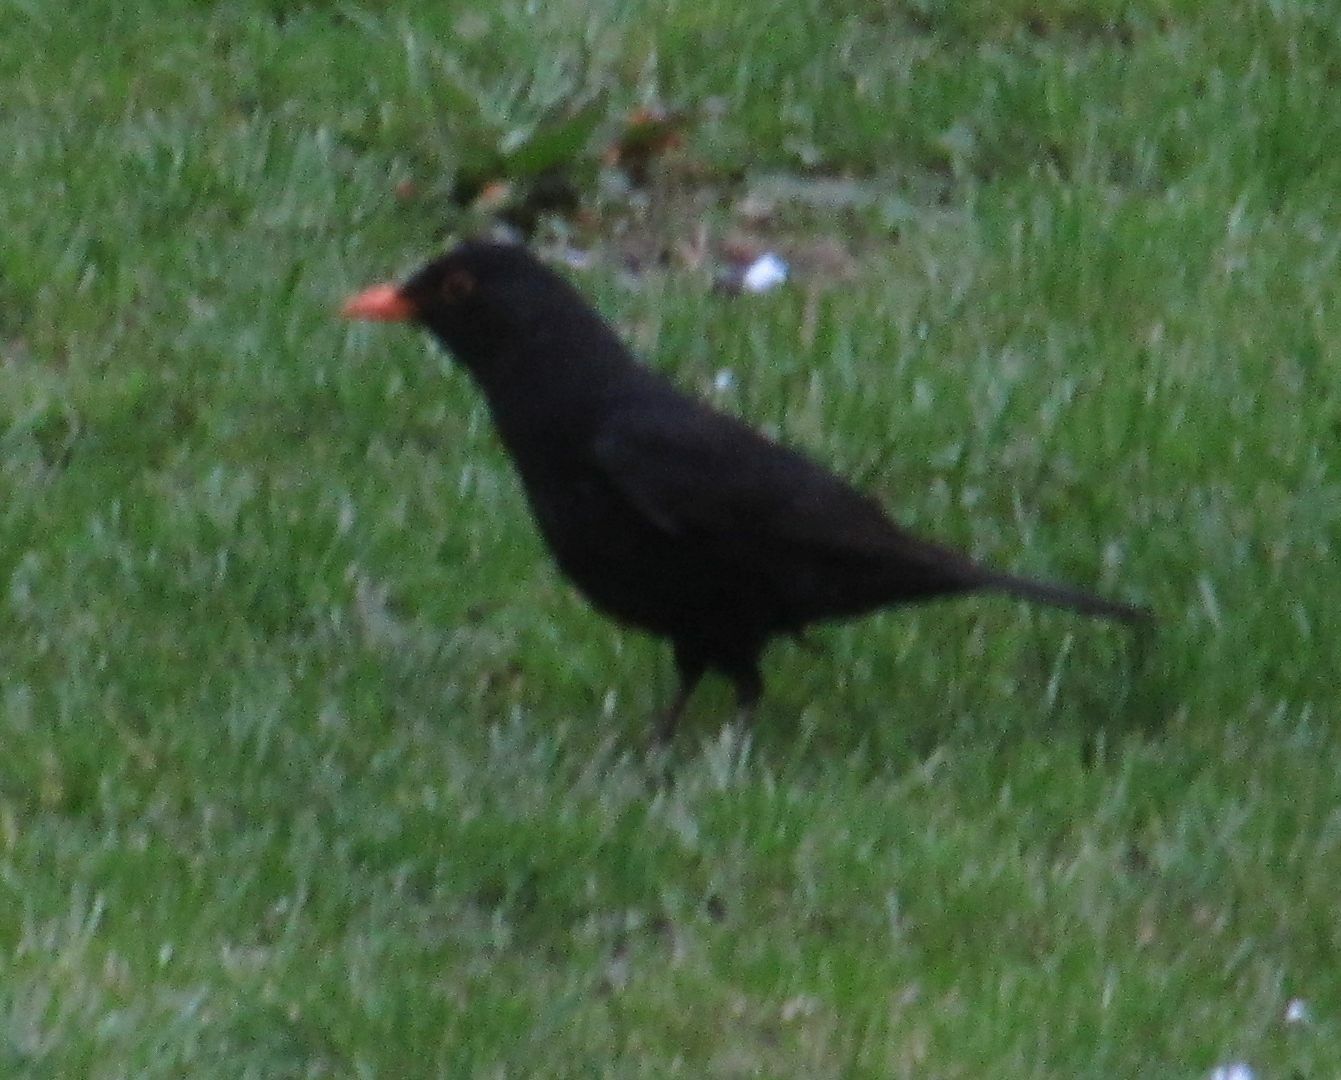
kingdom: Animalia
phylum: Chordata
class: Aves
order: Passeriformes
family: Turdidae
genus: Turdus
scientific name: Turdus merula
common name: Common blackbird
